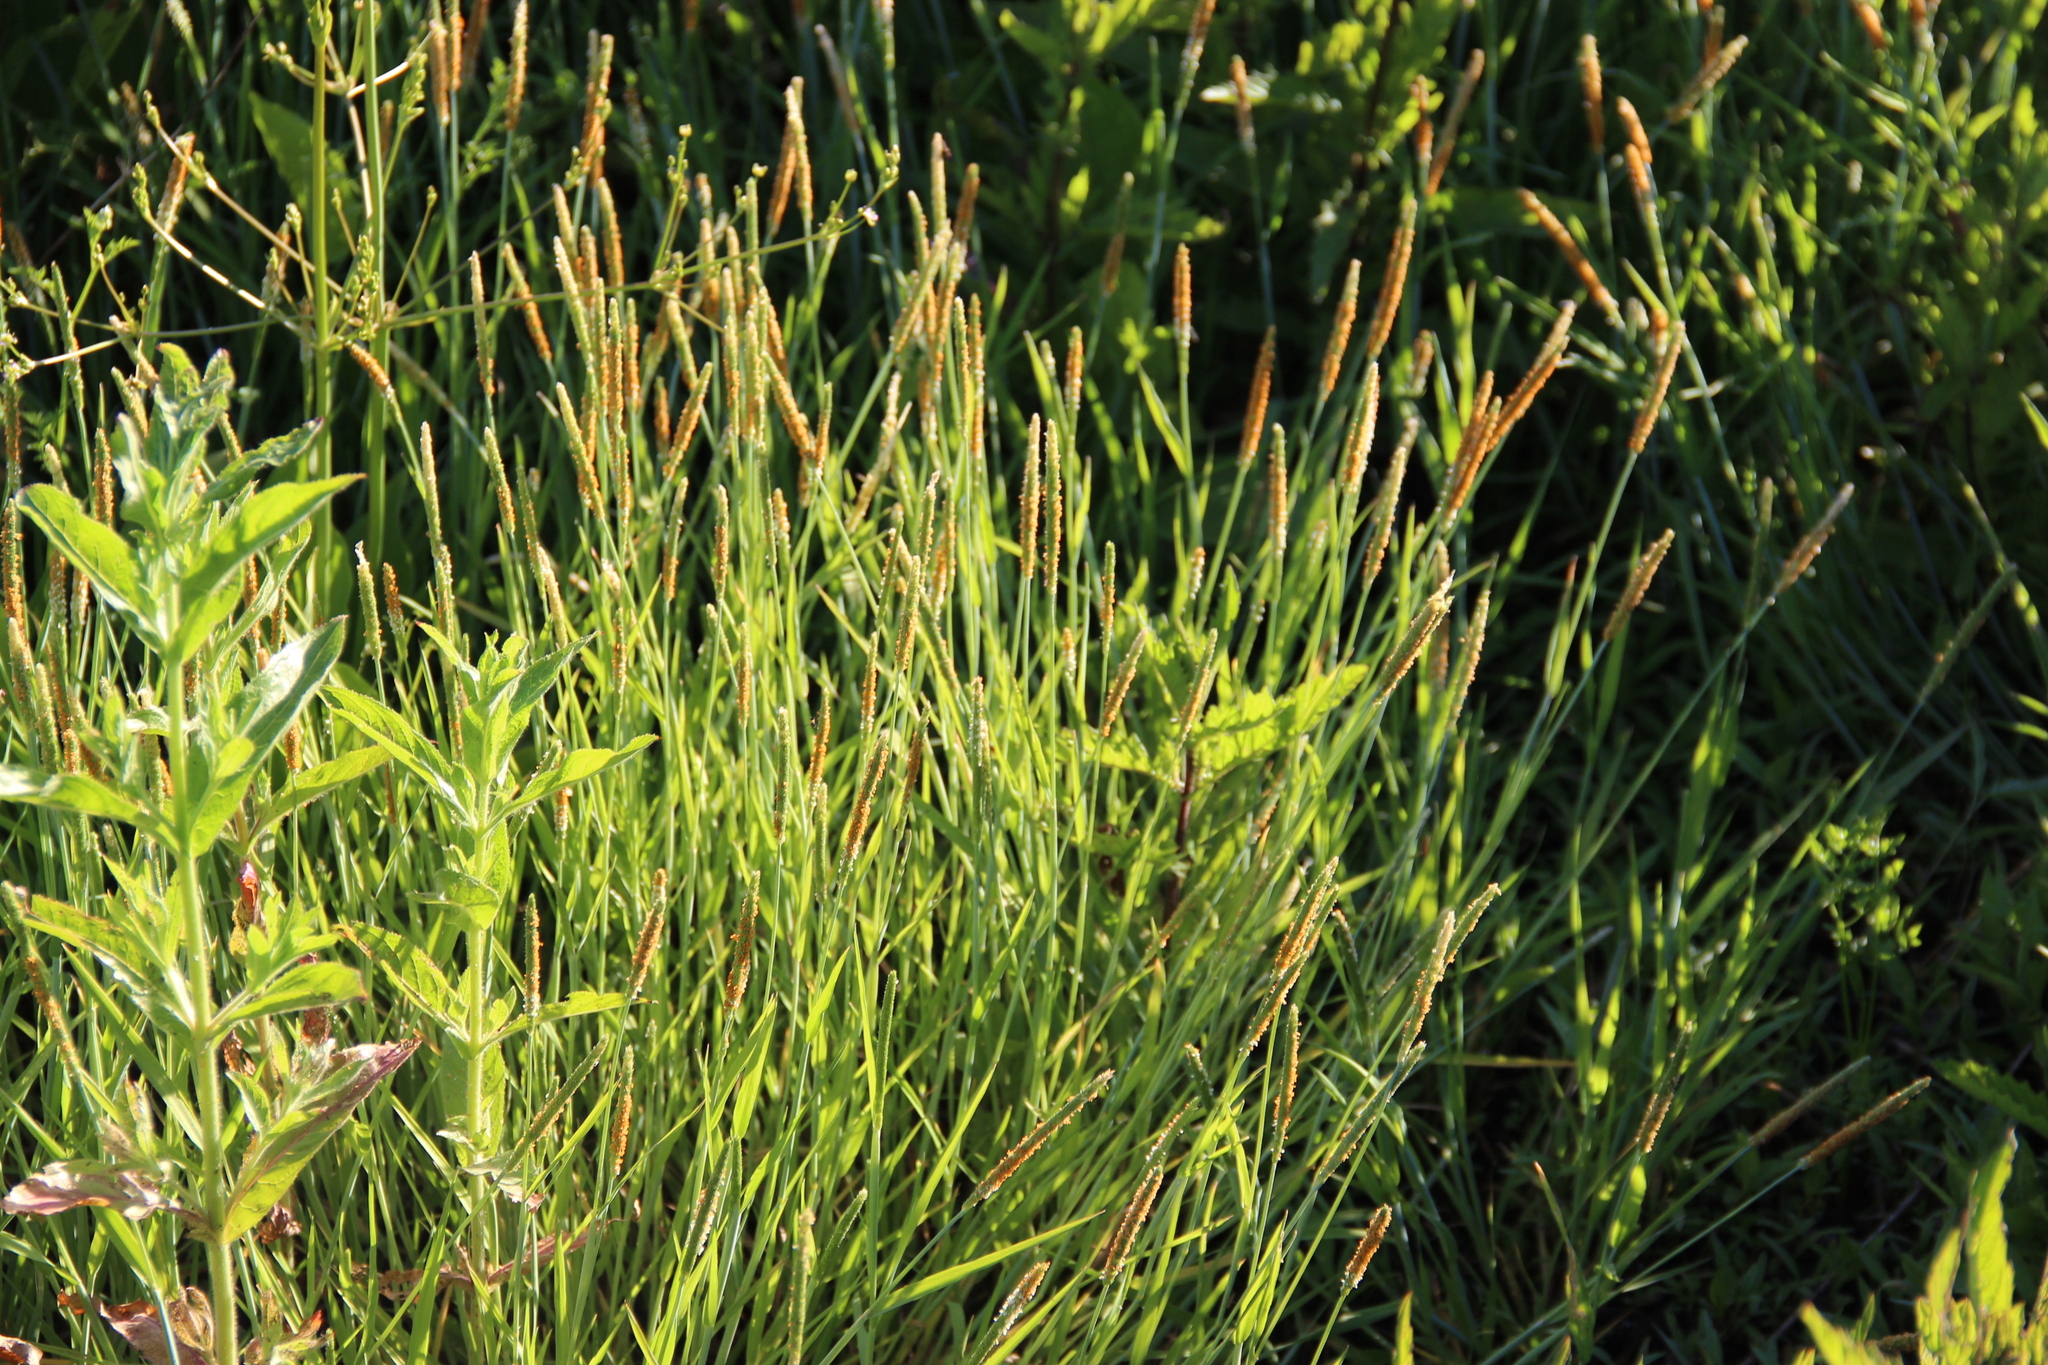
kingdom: Plantae
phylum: Tracheophyta
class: Liliopsida
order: Poales
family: Poaceae
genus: Alopecurus
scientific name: Alopecurus aequalis
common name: Orange foxtail
